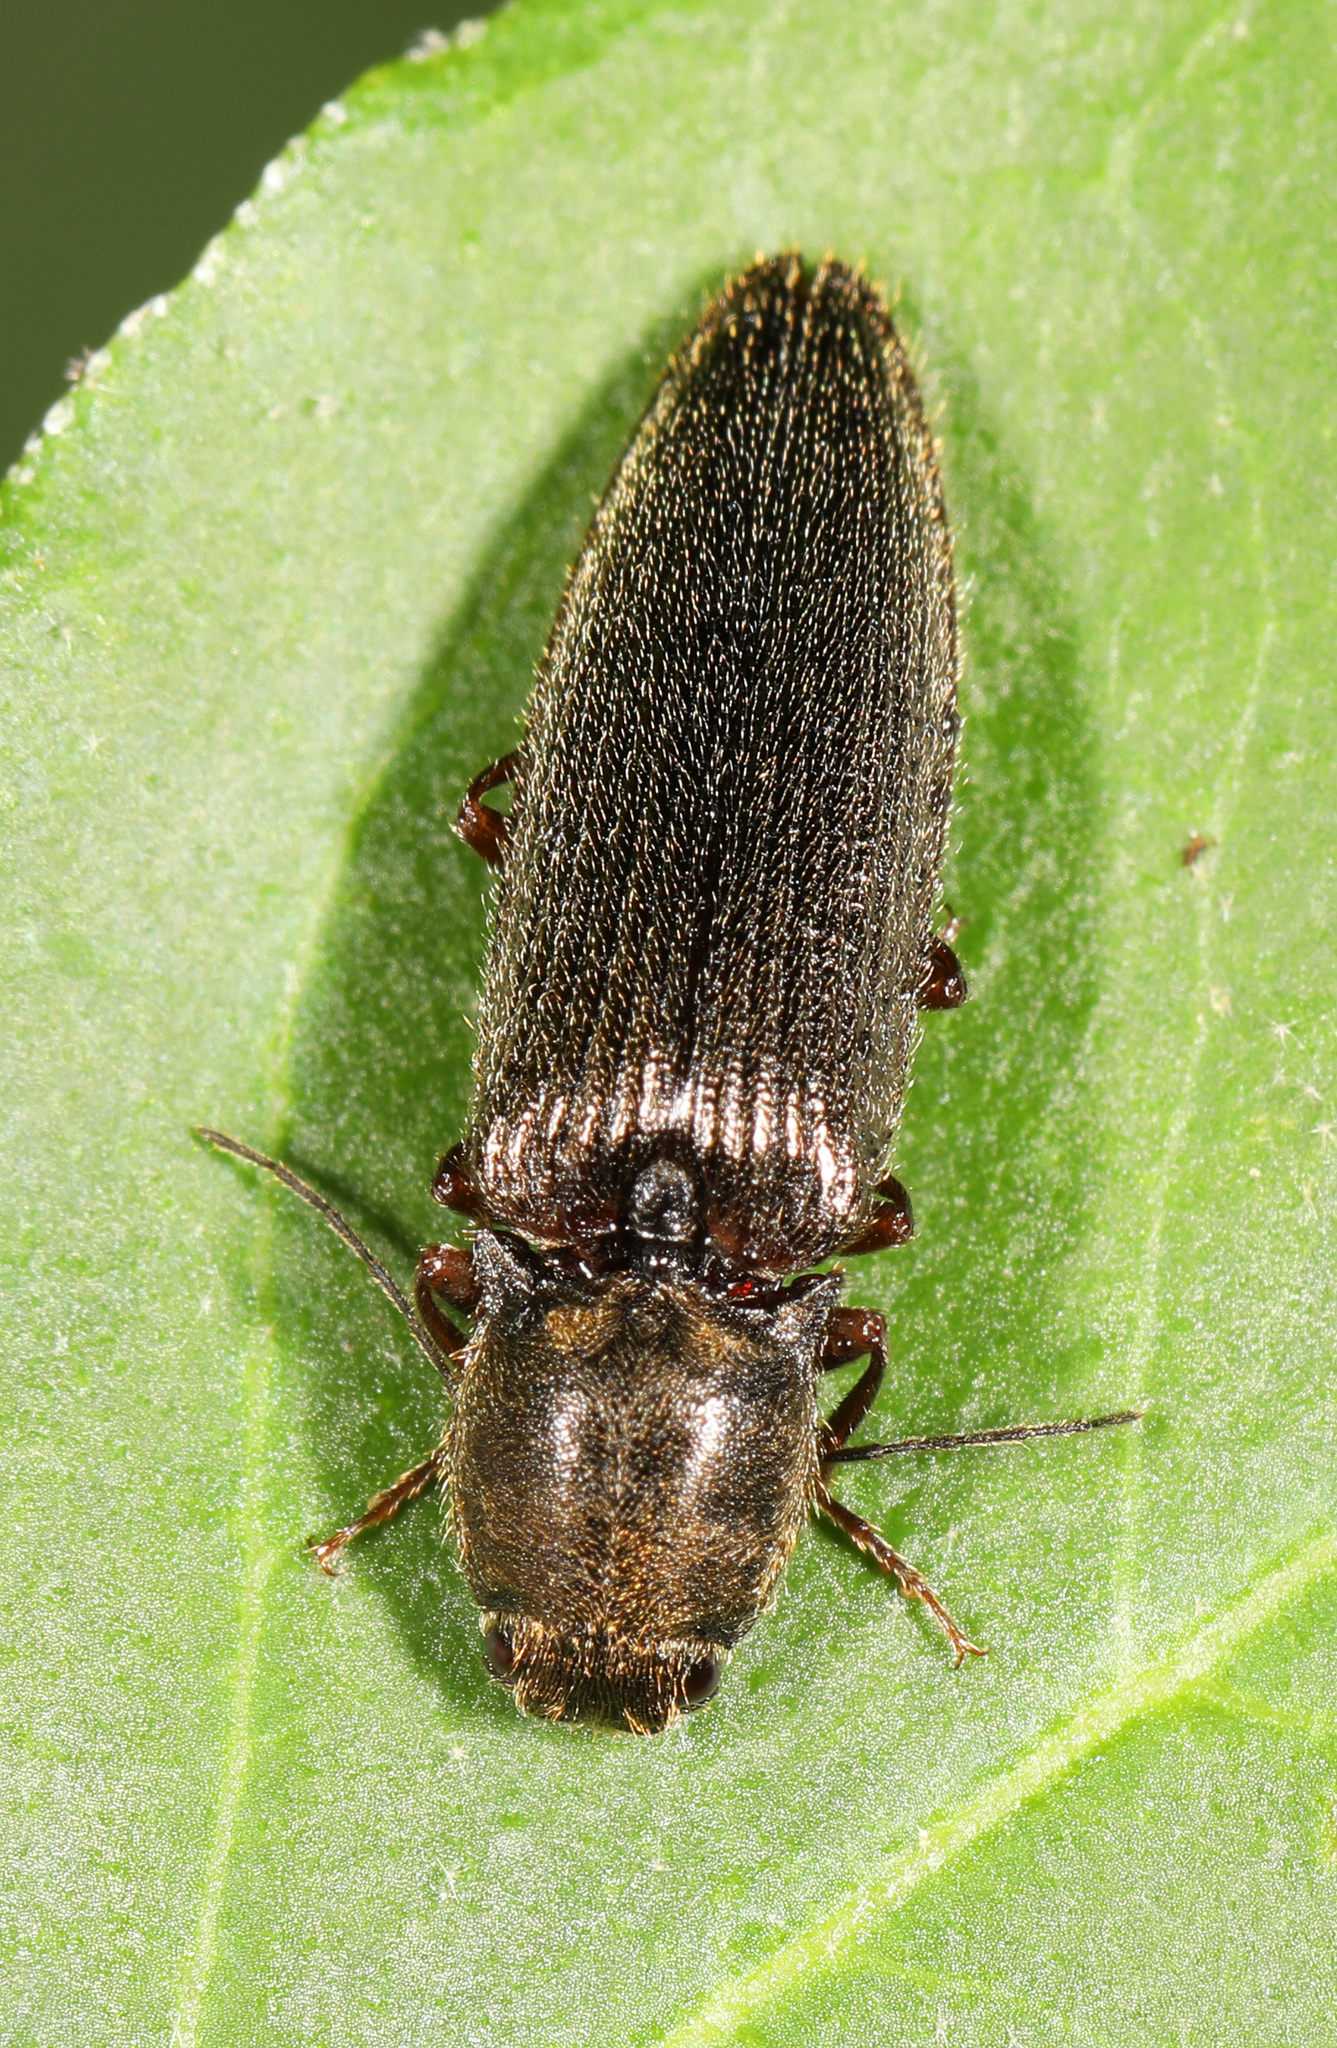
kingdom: Animalia
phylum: Arthropoda
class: Insecta
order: Coleoptera
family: Elateridae
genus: Hemicrepidius
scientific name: Hemicrepidius hemipodus
